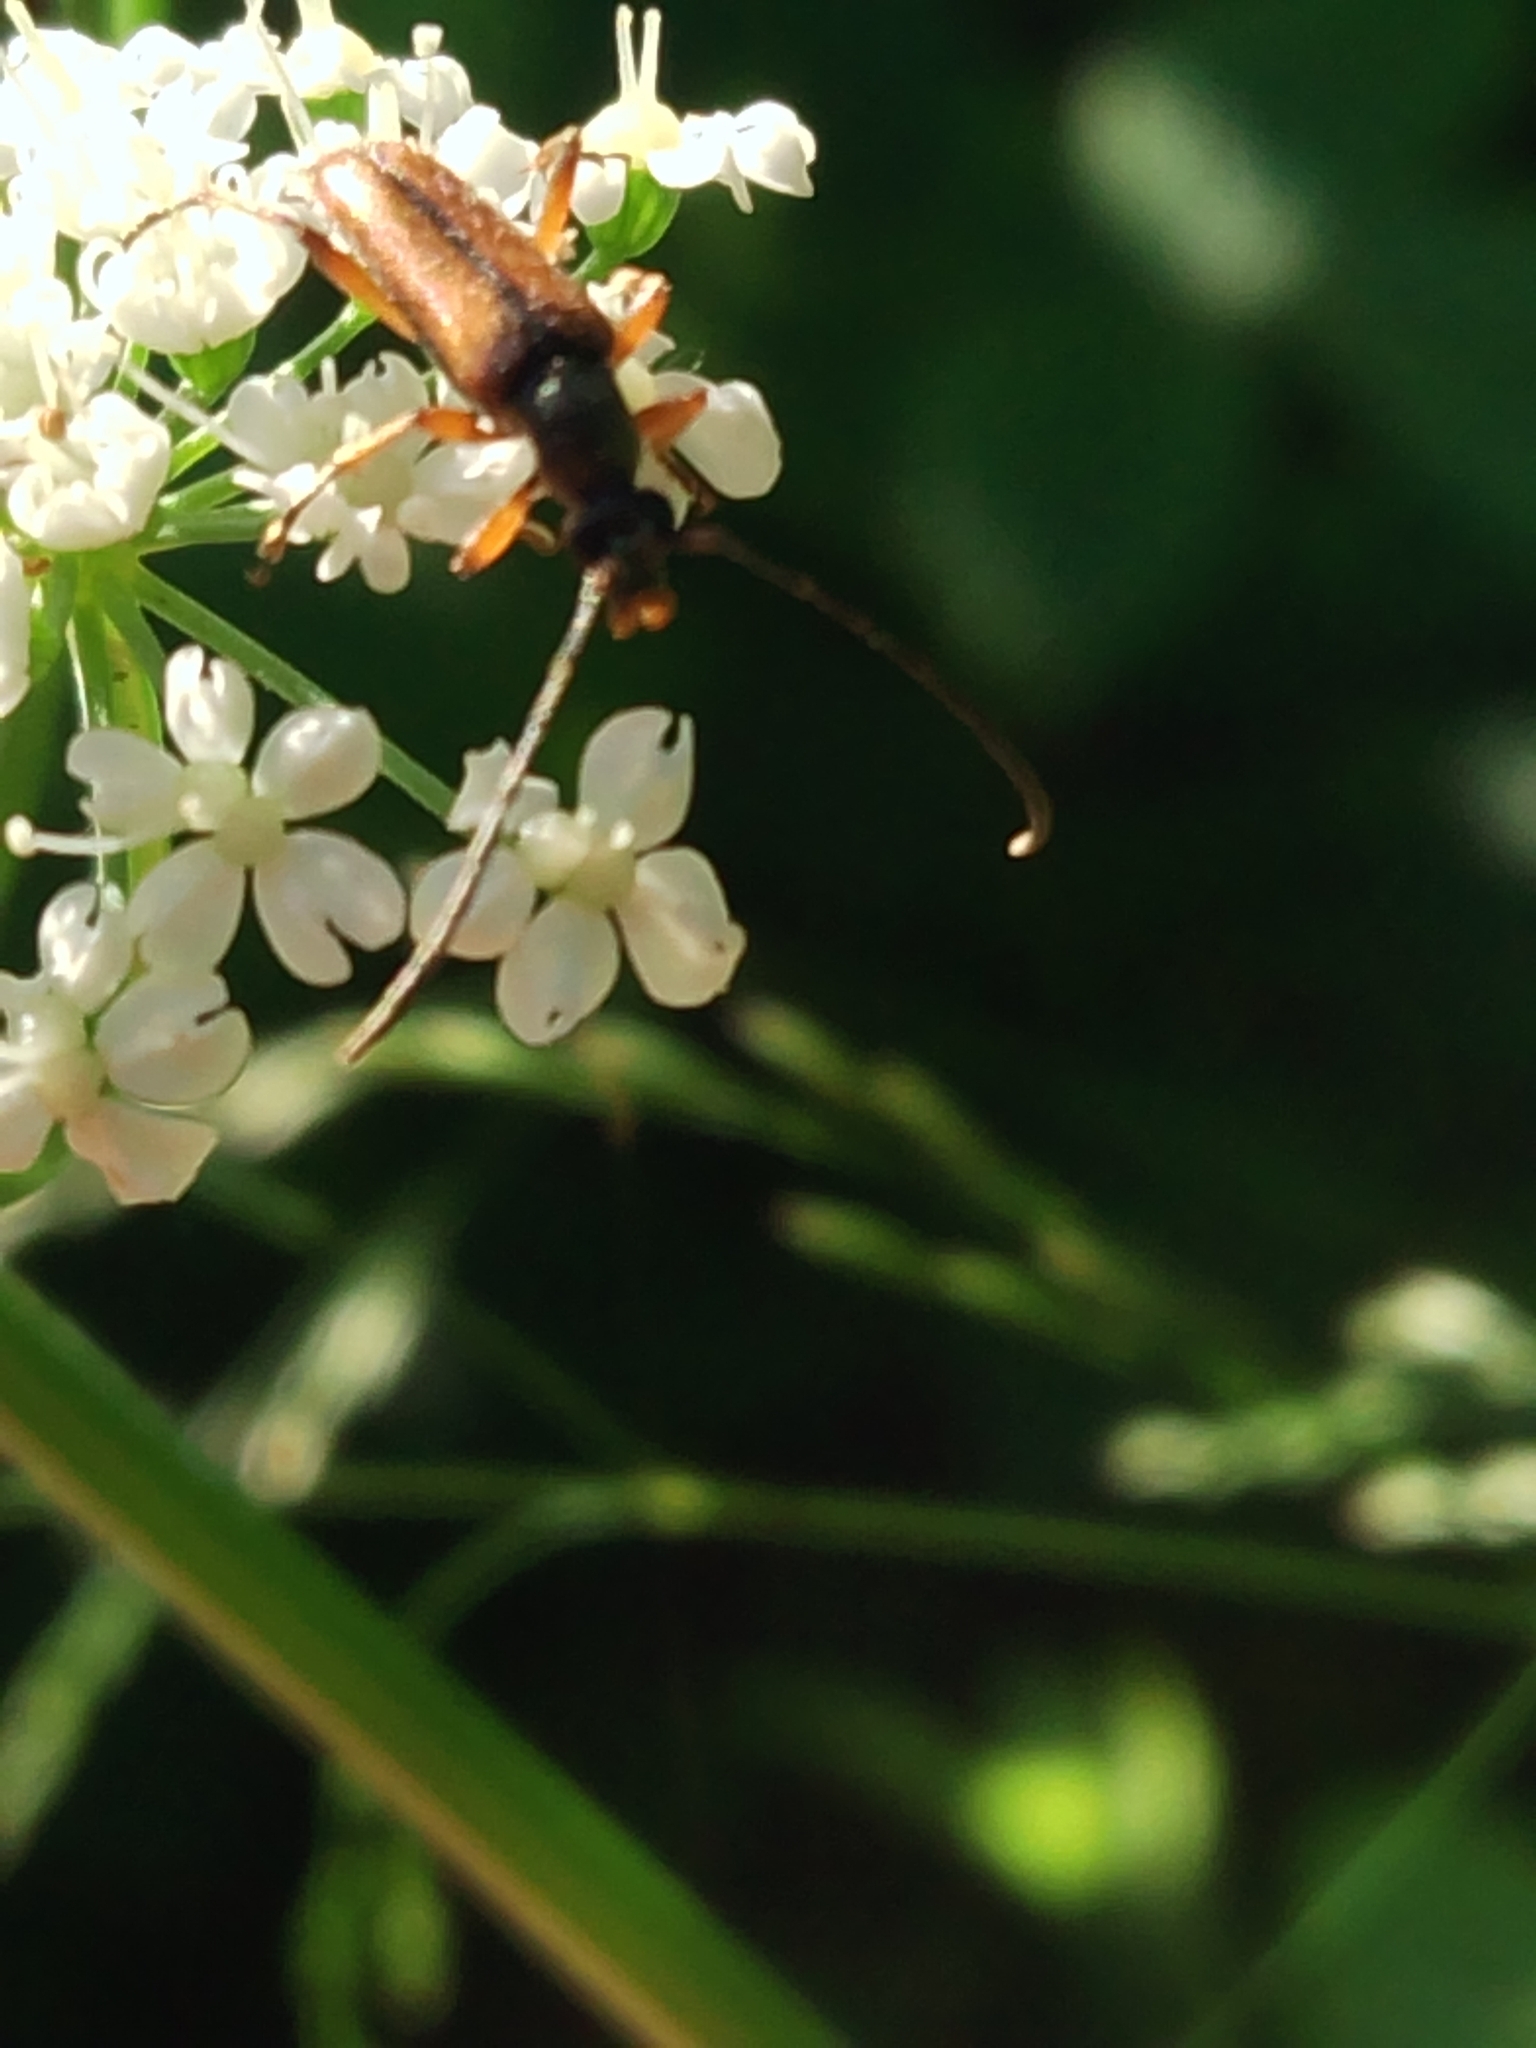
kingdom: Animalia
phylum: Arthropoda
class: Insecta
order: Coleoptera
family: Cerambycidae
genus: Alosterna
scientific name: Alosterna tabacicolor
